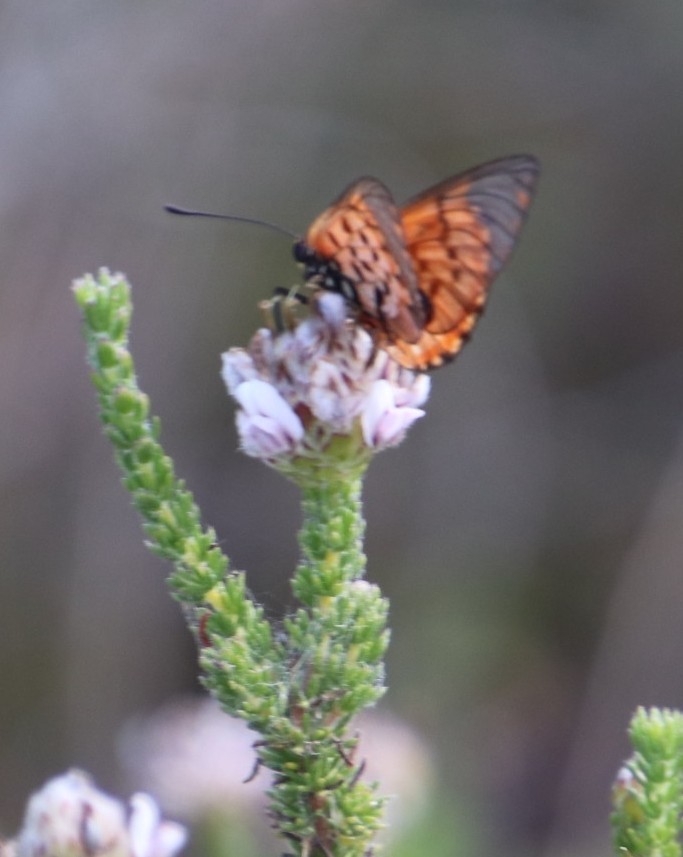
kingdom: Plantae
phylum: Tracheophyta
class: Magnoliopsida
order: Fabales
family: Fabaceae
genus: Aspalathus
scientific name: Aspalathus globulosa
